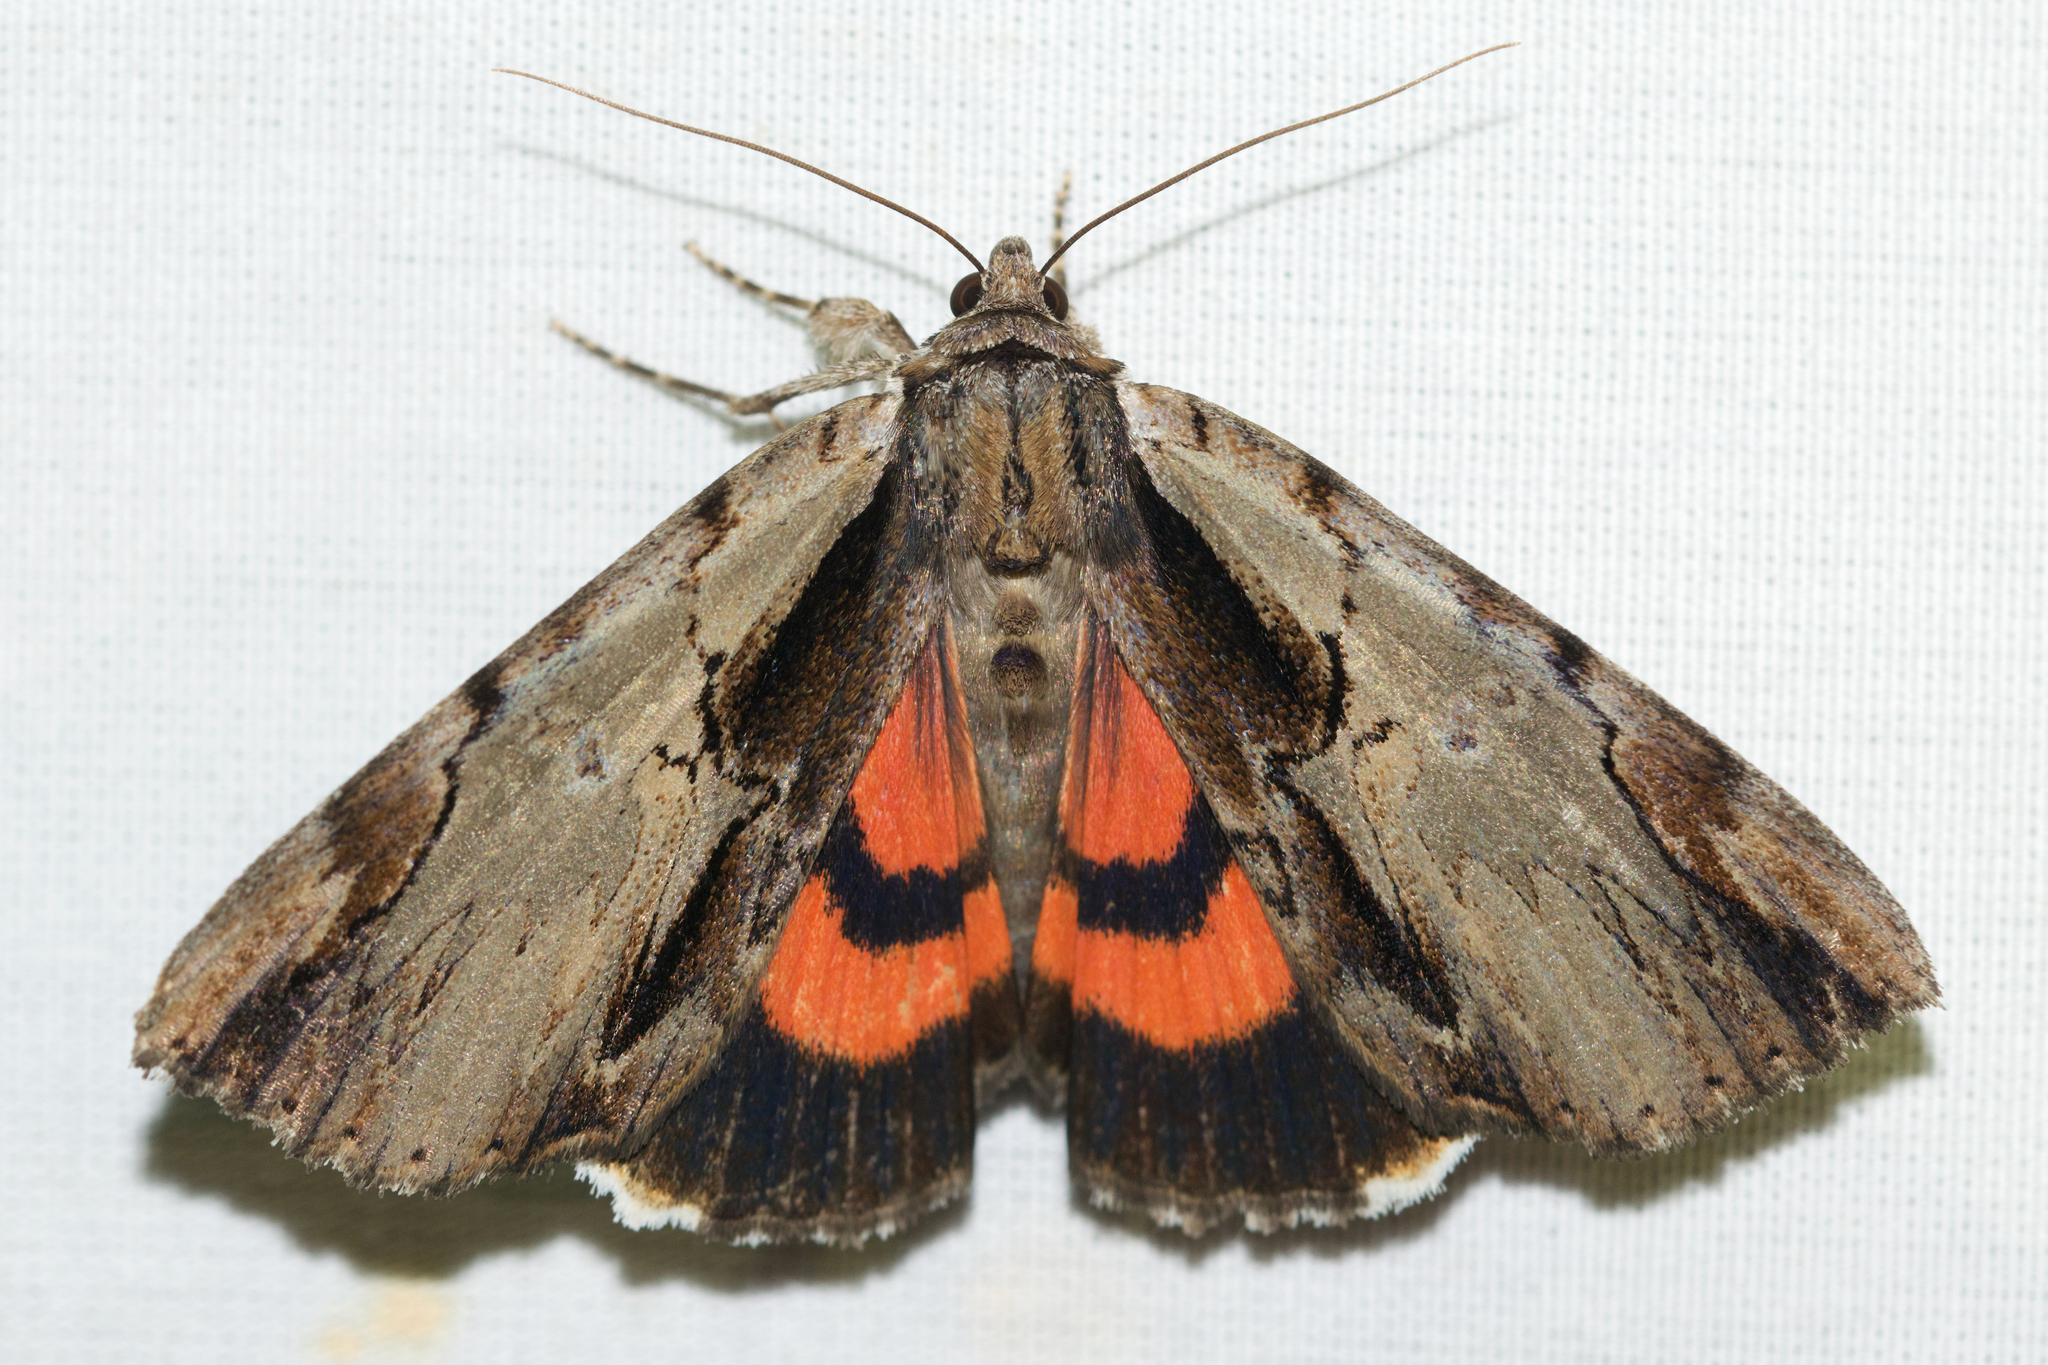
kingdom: Animalia
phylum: Arthropoda
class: Insecta
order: Lepidoptera
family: Erebidae
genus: Catocala
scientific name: Catocala ultronia
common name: Ultronia underwing
